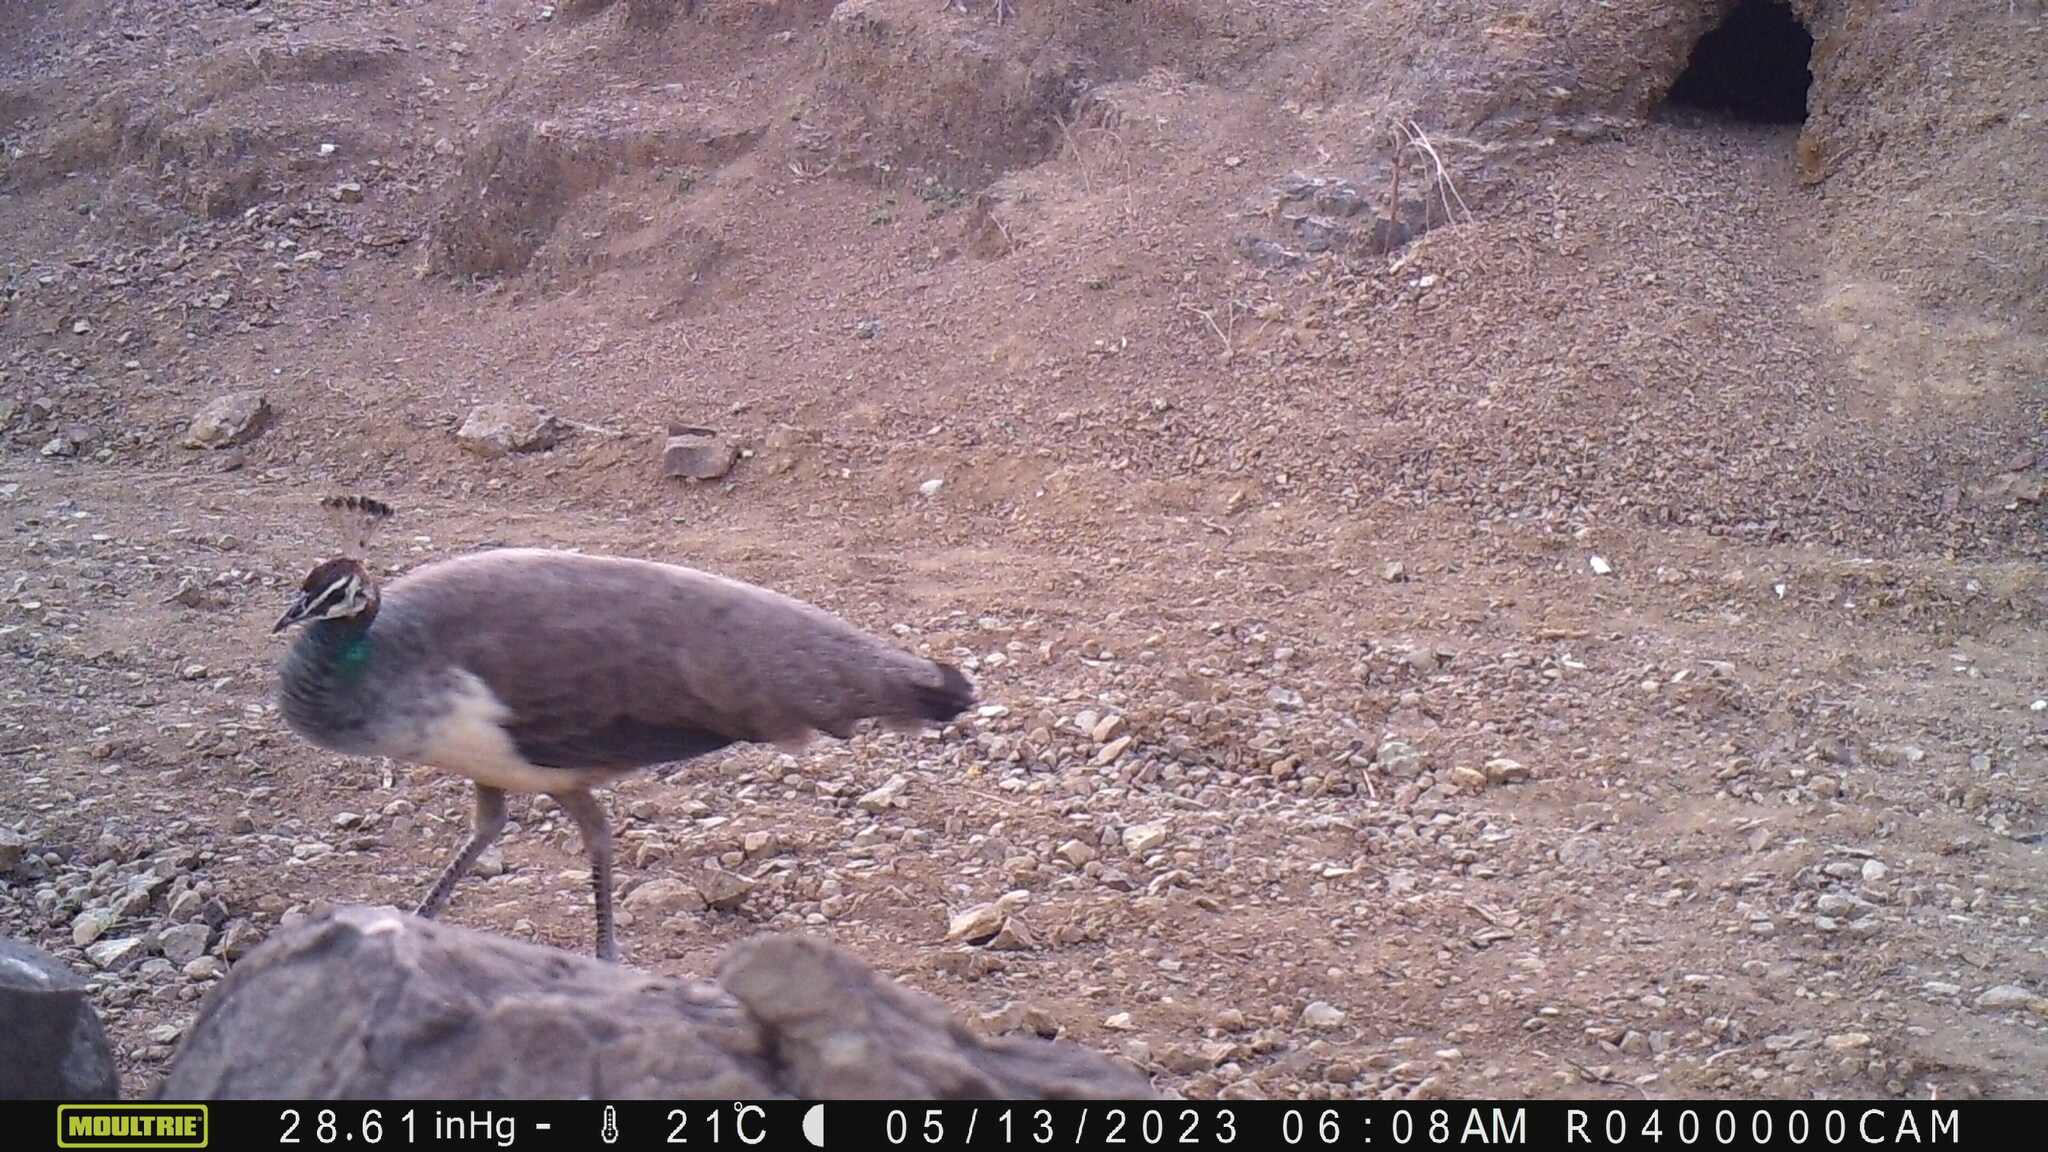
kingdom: Animalia
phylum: Chordata
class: Aves
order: Galliformes
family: Phasianidae
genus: Pavo
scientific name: Pavo cristatus
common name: Indian peafowl
